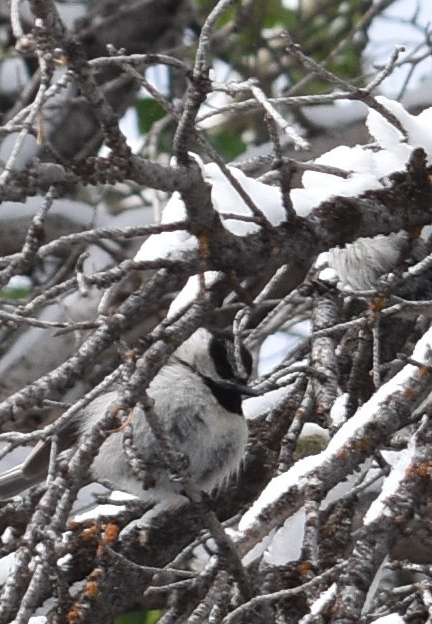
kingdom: Animalia
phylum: Chordata
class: Aves
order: Passeriformes
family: Paridae
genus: Poecile
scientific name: Poecile gambeli
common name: Mountain chickadee
